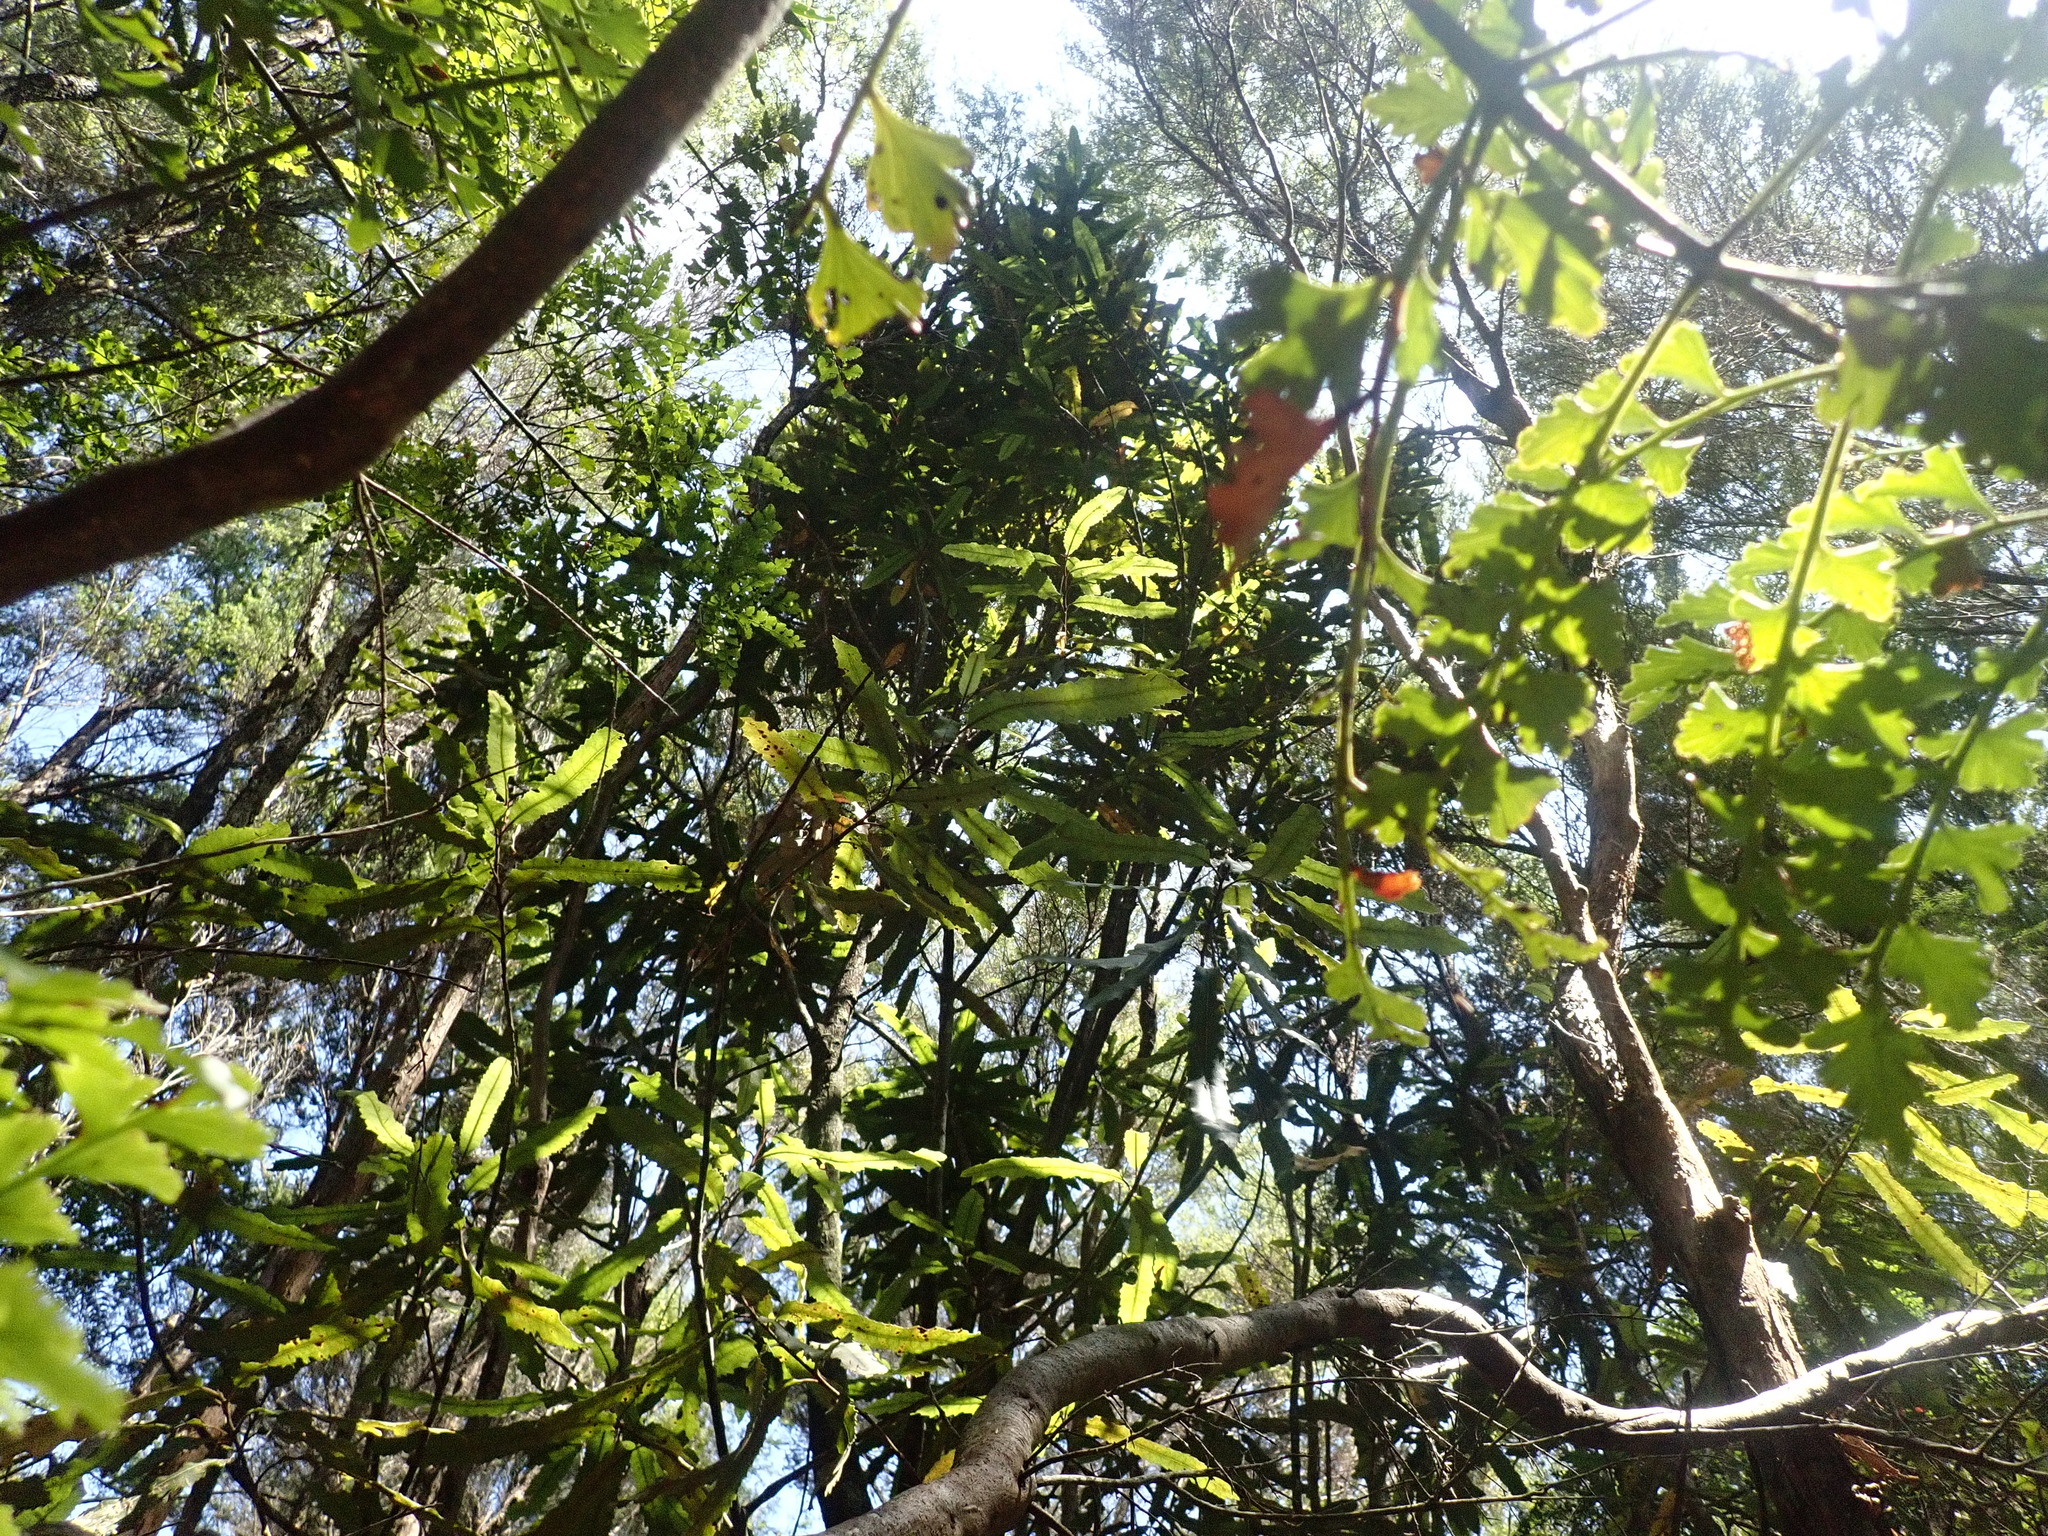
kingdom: Plantae
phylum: Tracheophyta
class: Magnoliopsida
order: Proteales
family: Proteaceae
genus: Knightia
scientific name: Knightia excelsa
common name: New zealand-honeysuckle
